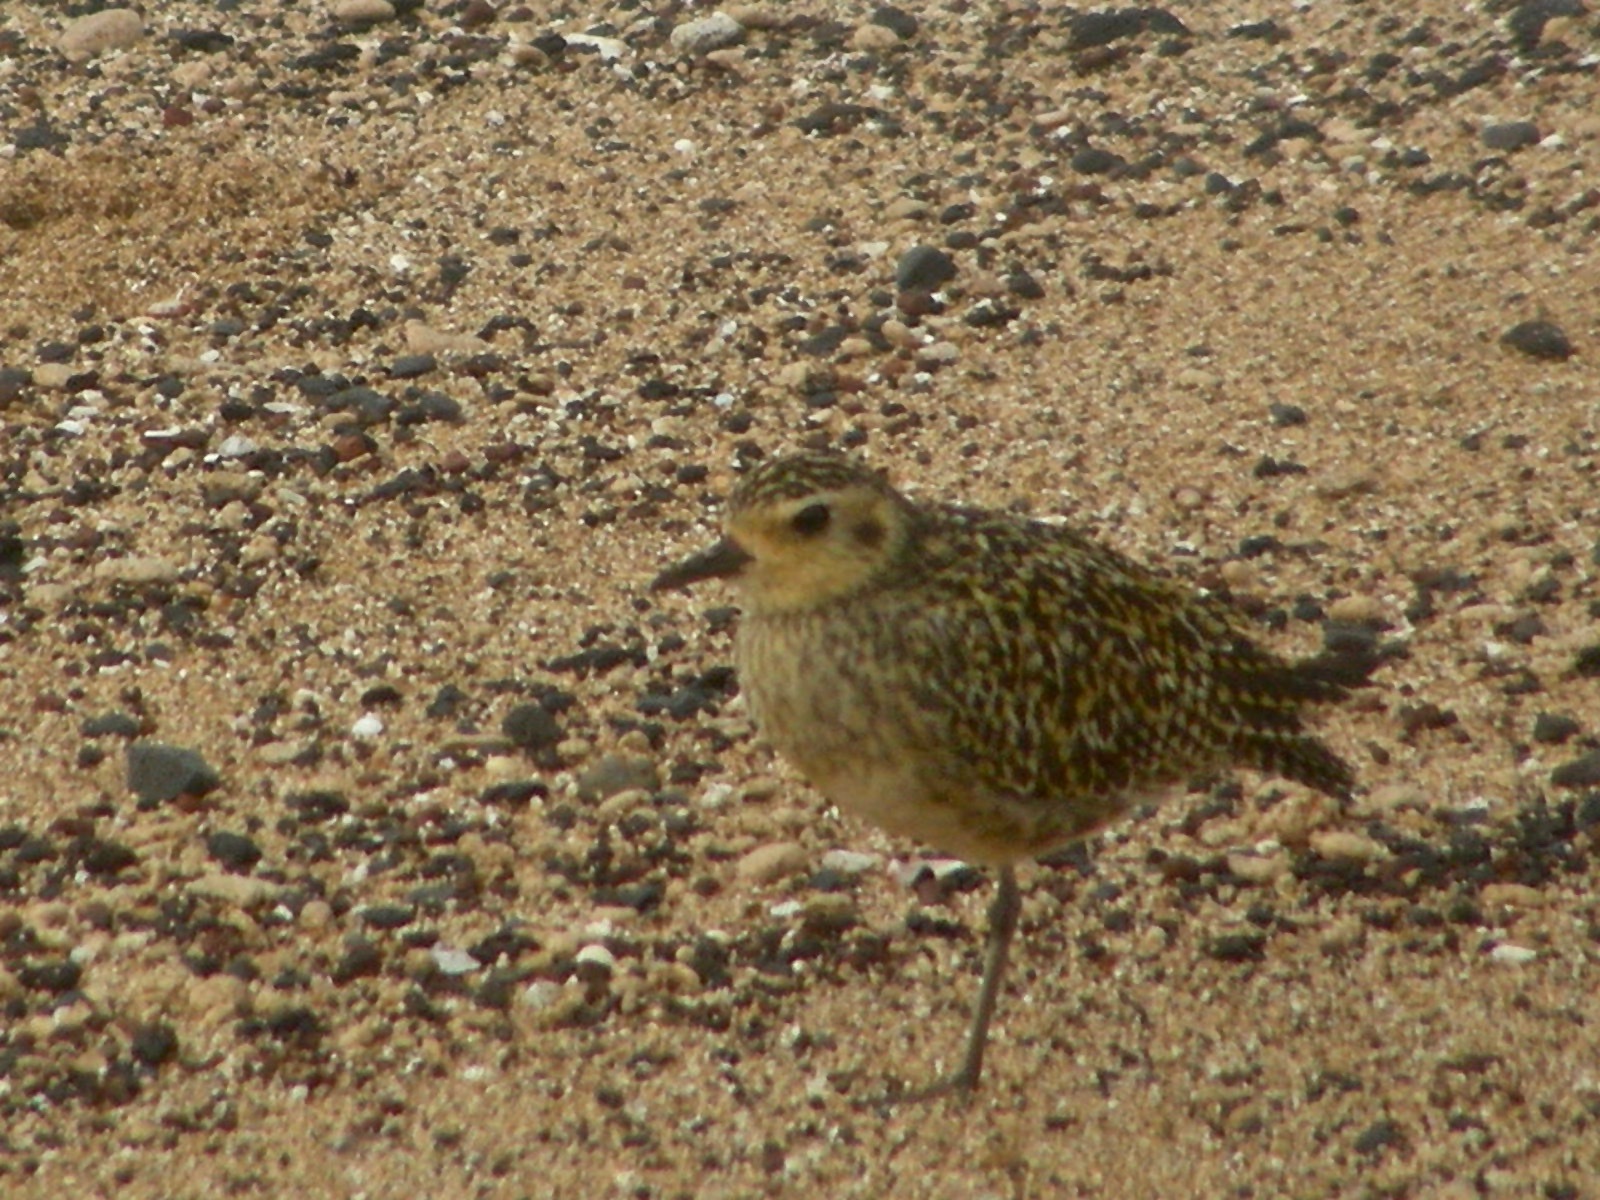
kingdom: Animalia
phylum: Chordata
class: Aves
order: Charadriiformes
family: Charadriidae
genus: Pluvialis
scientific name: Pluvialis fulva
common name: Pacific golden plover
